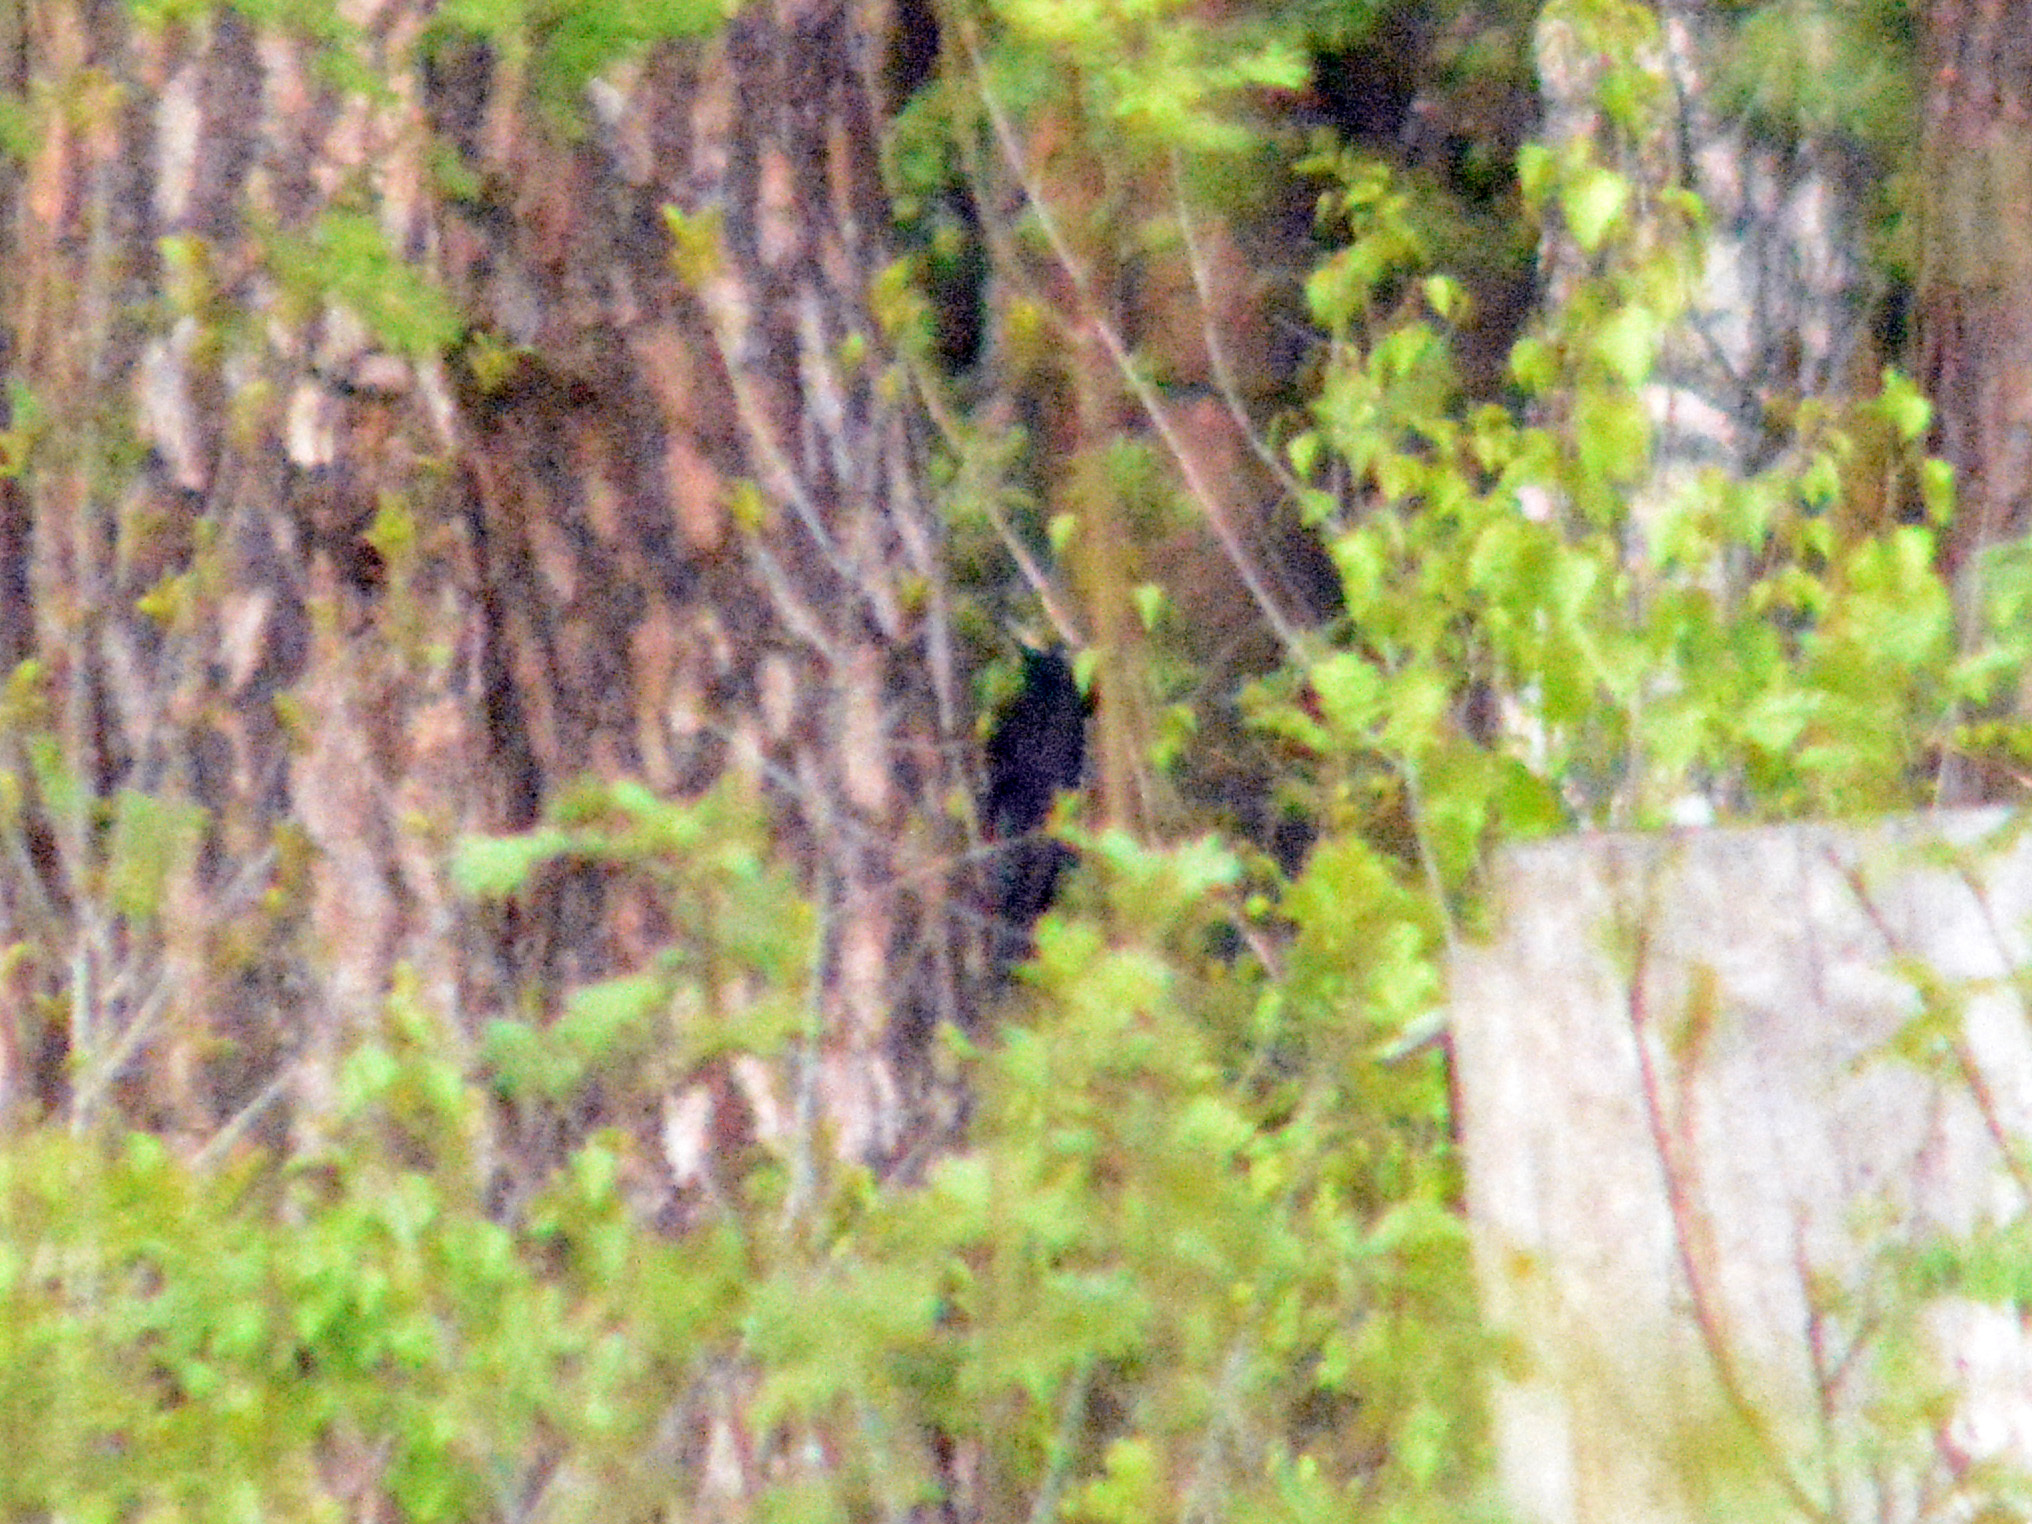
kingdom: Animalia
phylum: Chordata
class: Aves
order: Piciformes
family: Picidae
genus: Dryocopus
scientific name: Dryocopus martius
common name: Black woodpecker
